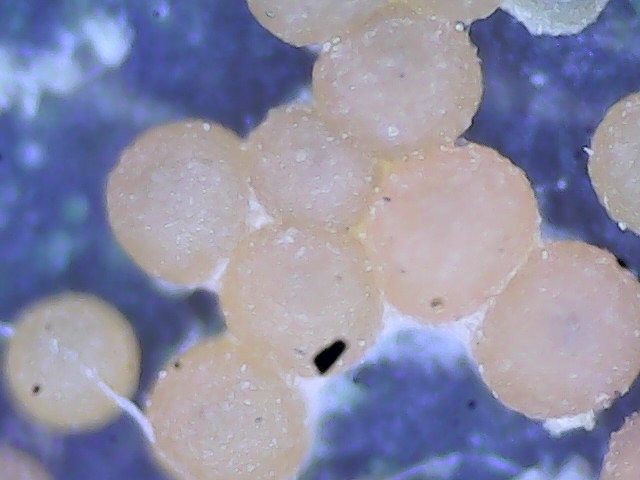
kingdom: Fungi
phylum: Ascomycota
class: Sordariomycetes
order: Hypocreales
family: Nectriaceae
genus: Hydropisphaera
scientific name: Hydropisphaera peziza
